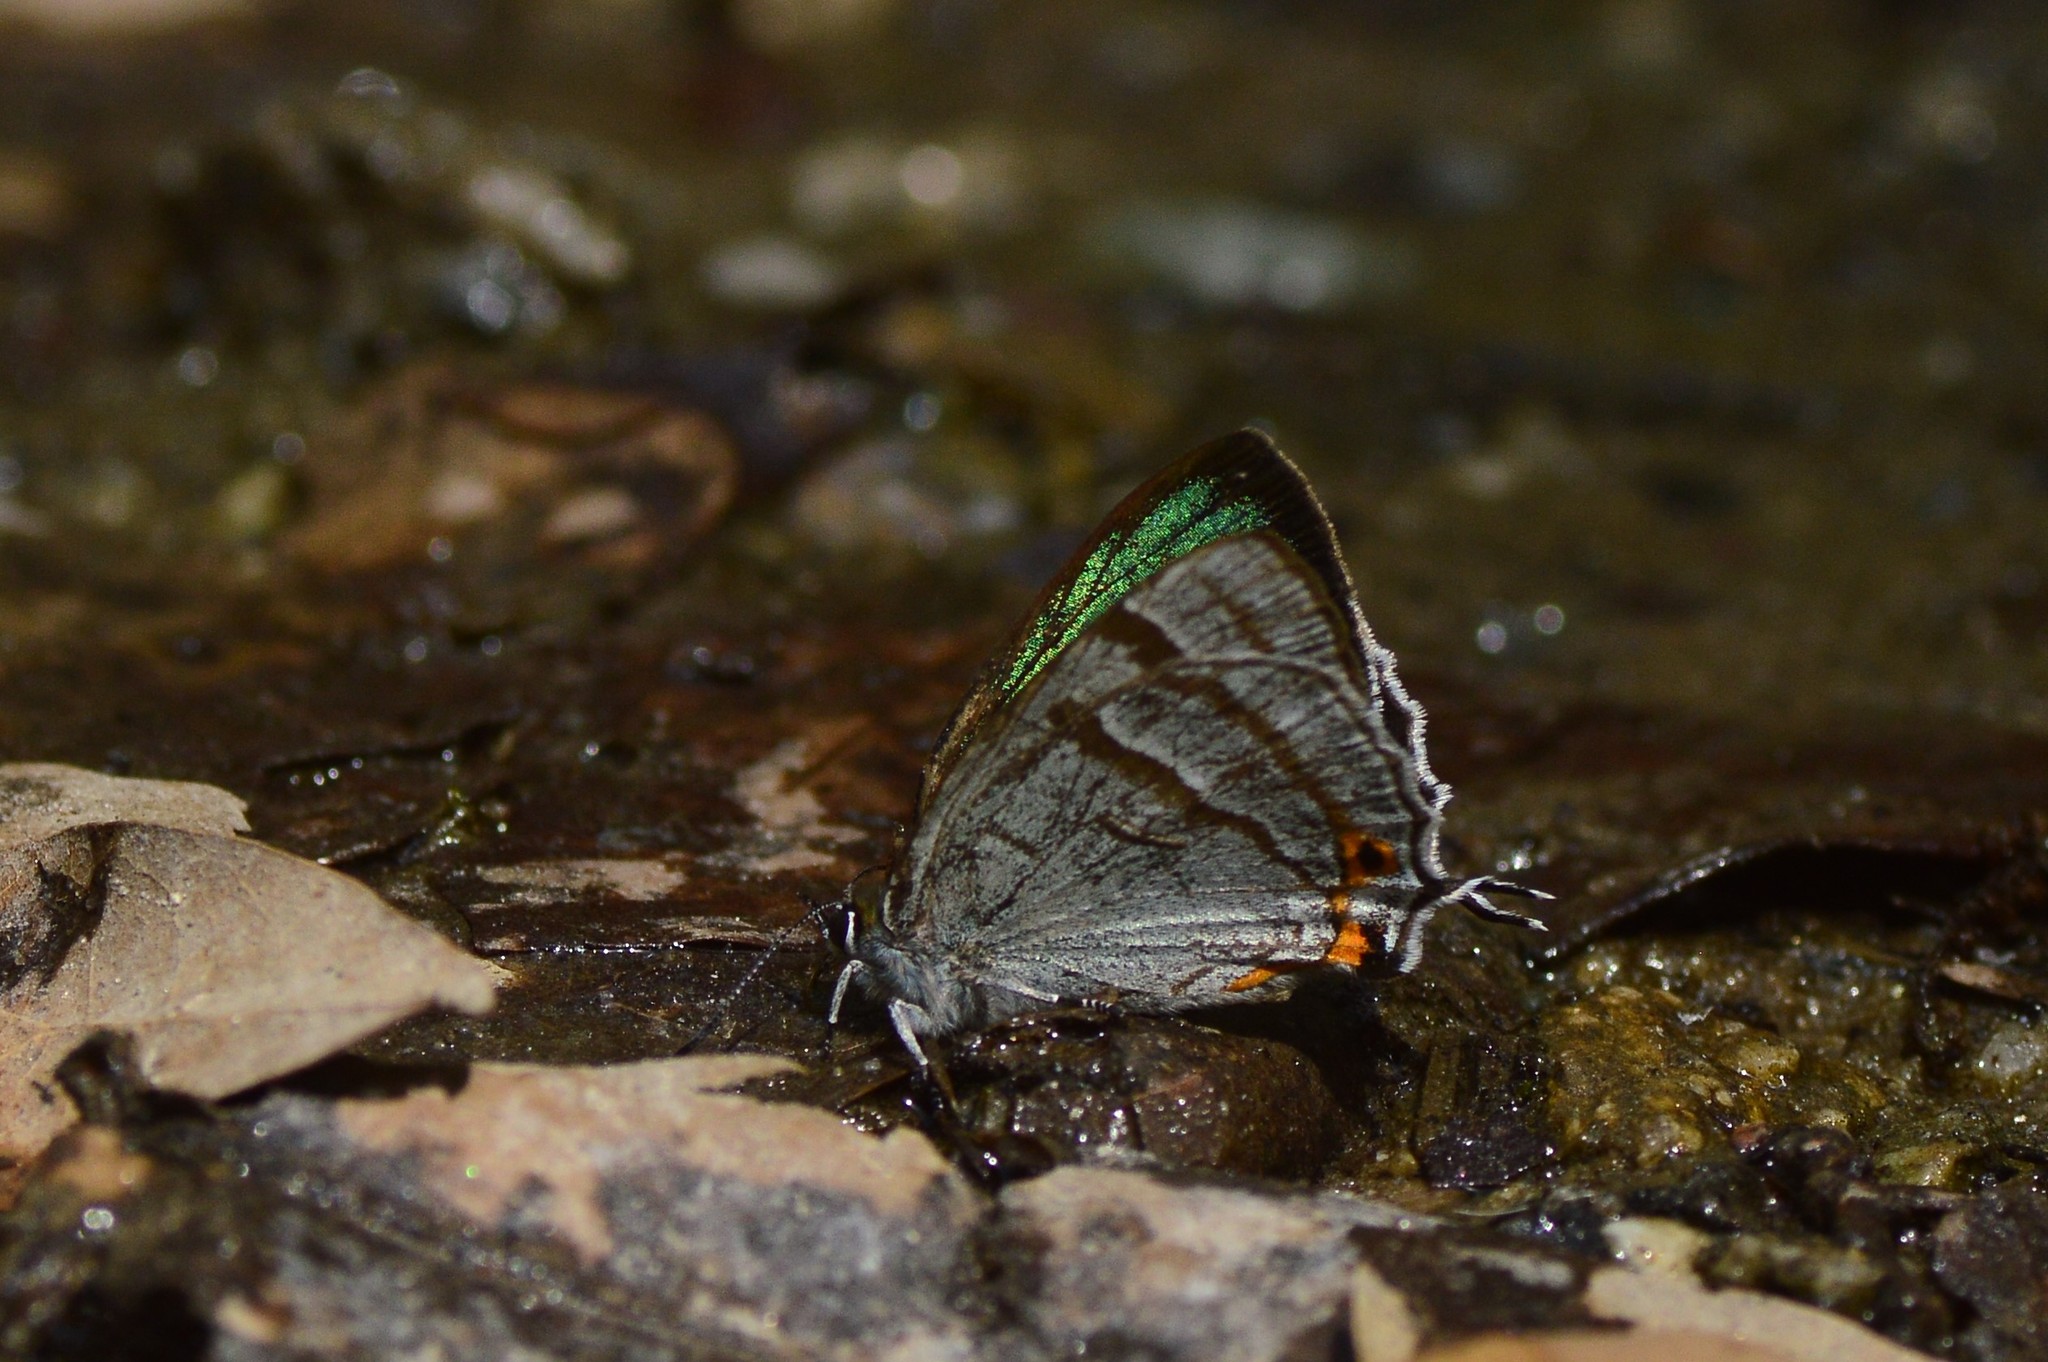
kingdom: Animalia
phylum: Arthropoda
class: Insecta
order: Lepidoptera
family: Lycaenidae
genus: Chrysozephyrus
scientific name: Chrysozephyrus syla
